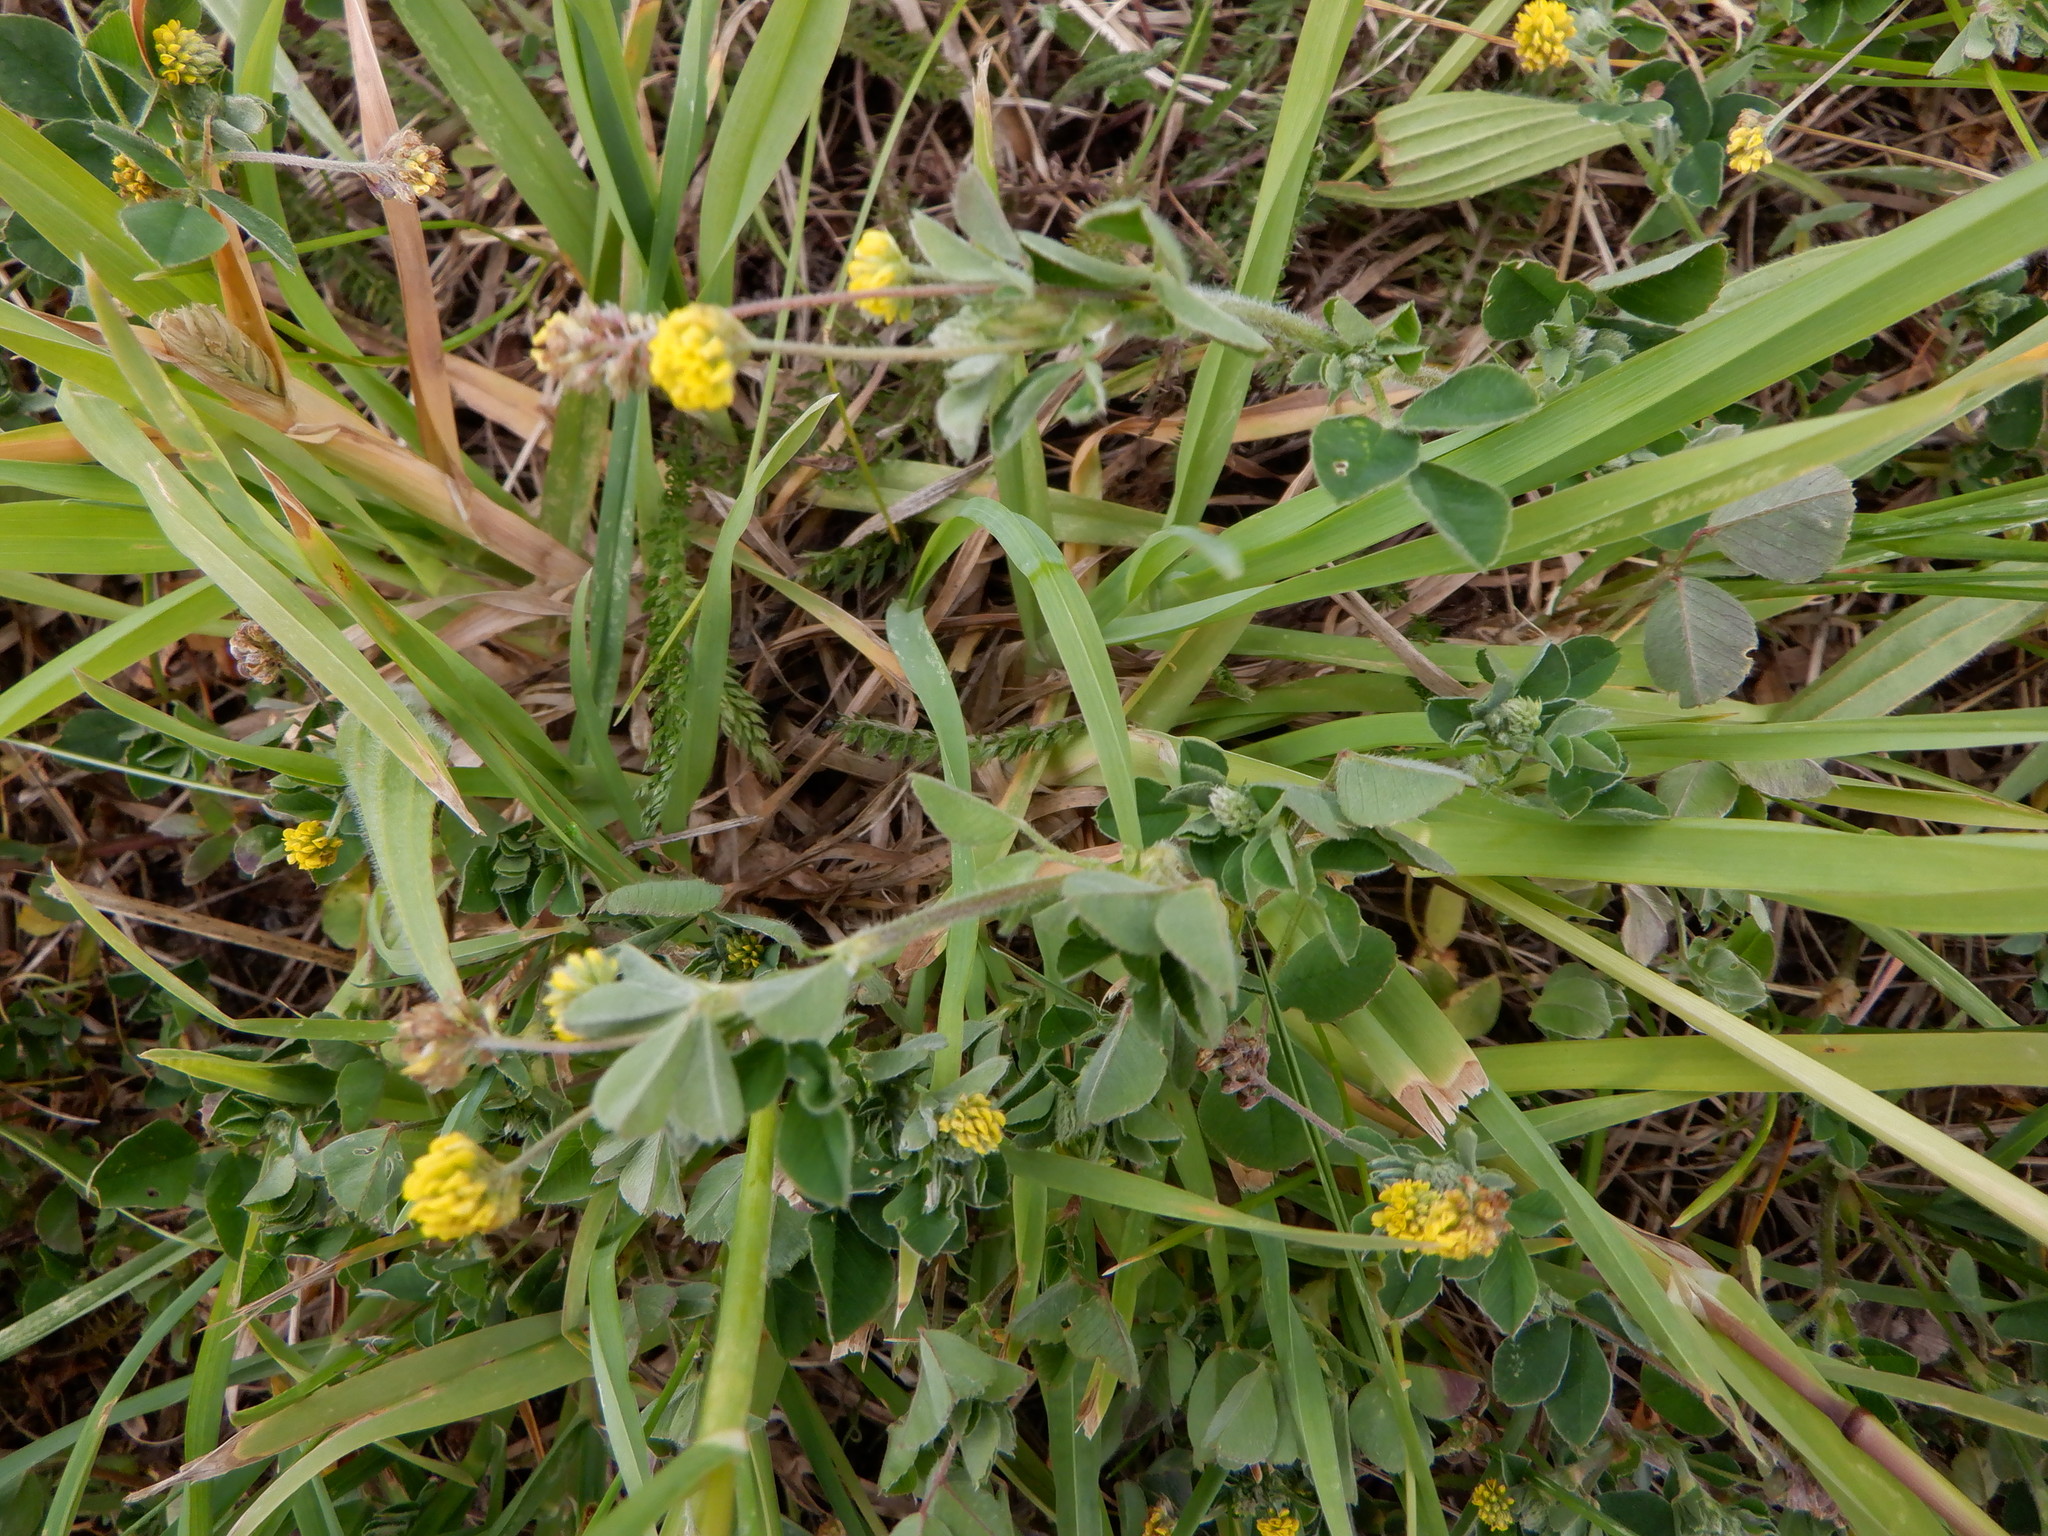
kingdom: Plantae
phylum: Tracheophyta
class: Magnoliopsida
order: Fabales
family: Fabaceae
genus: Medicago
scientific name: Medicago lupulina
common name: Black medick
